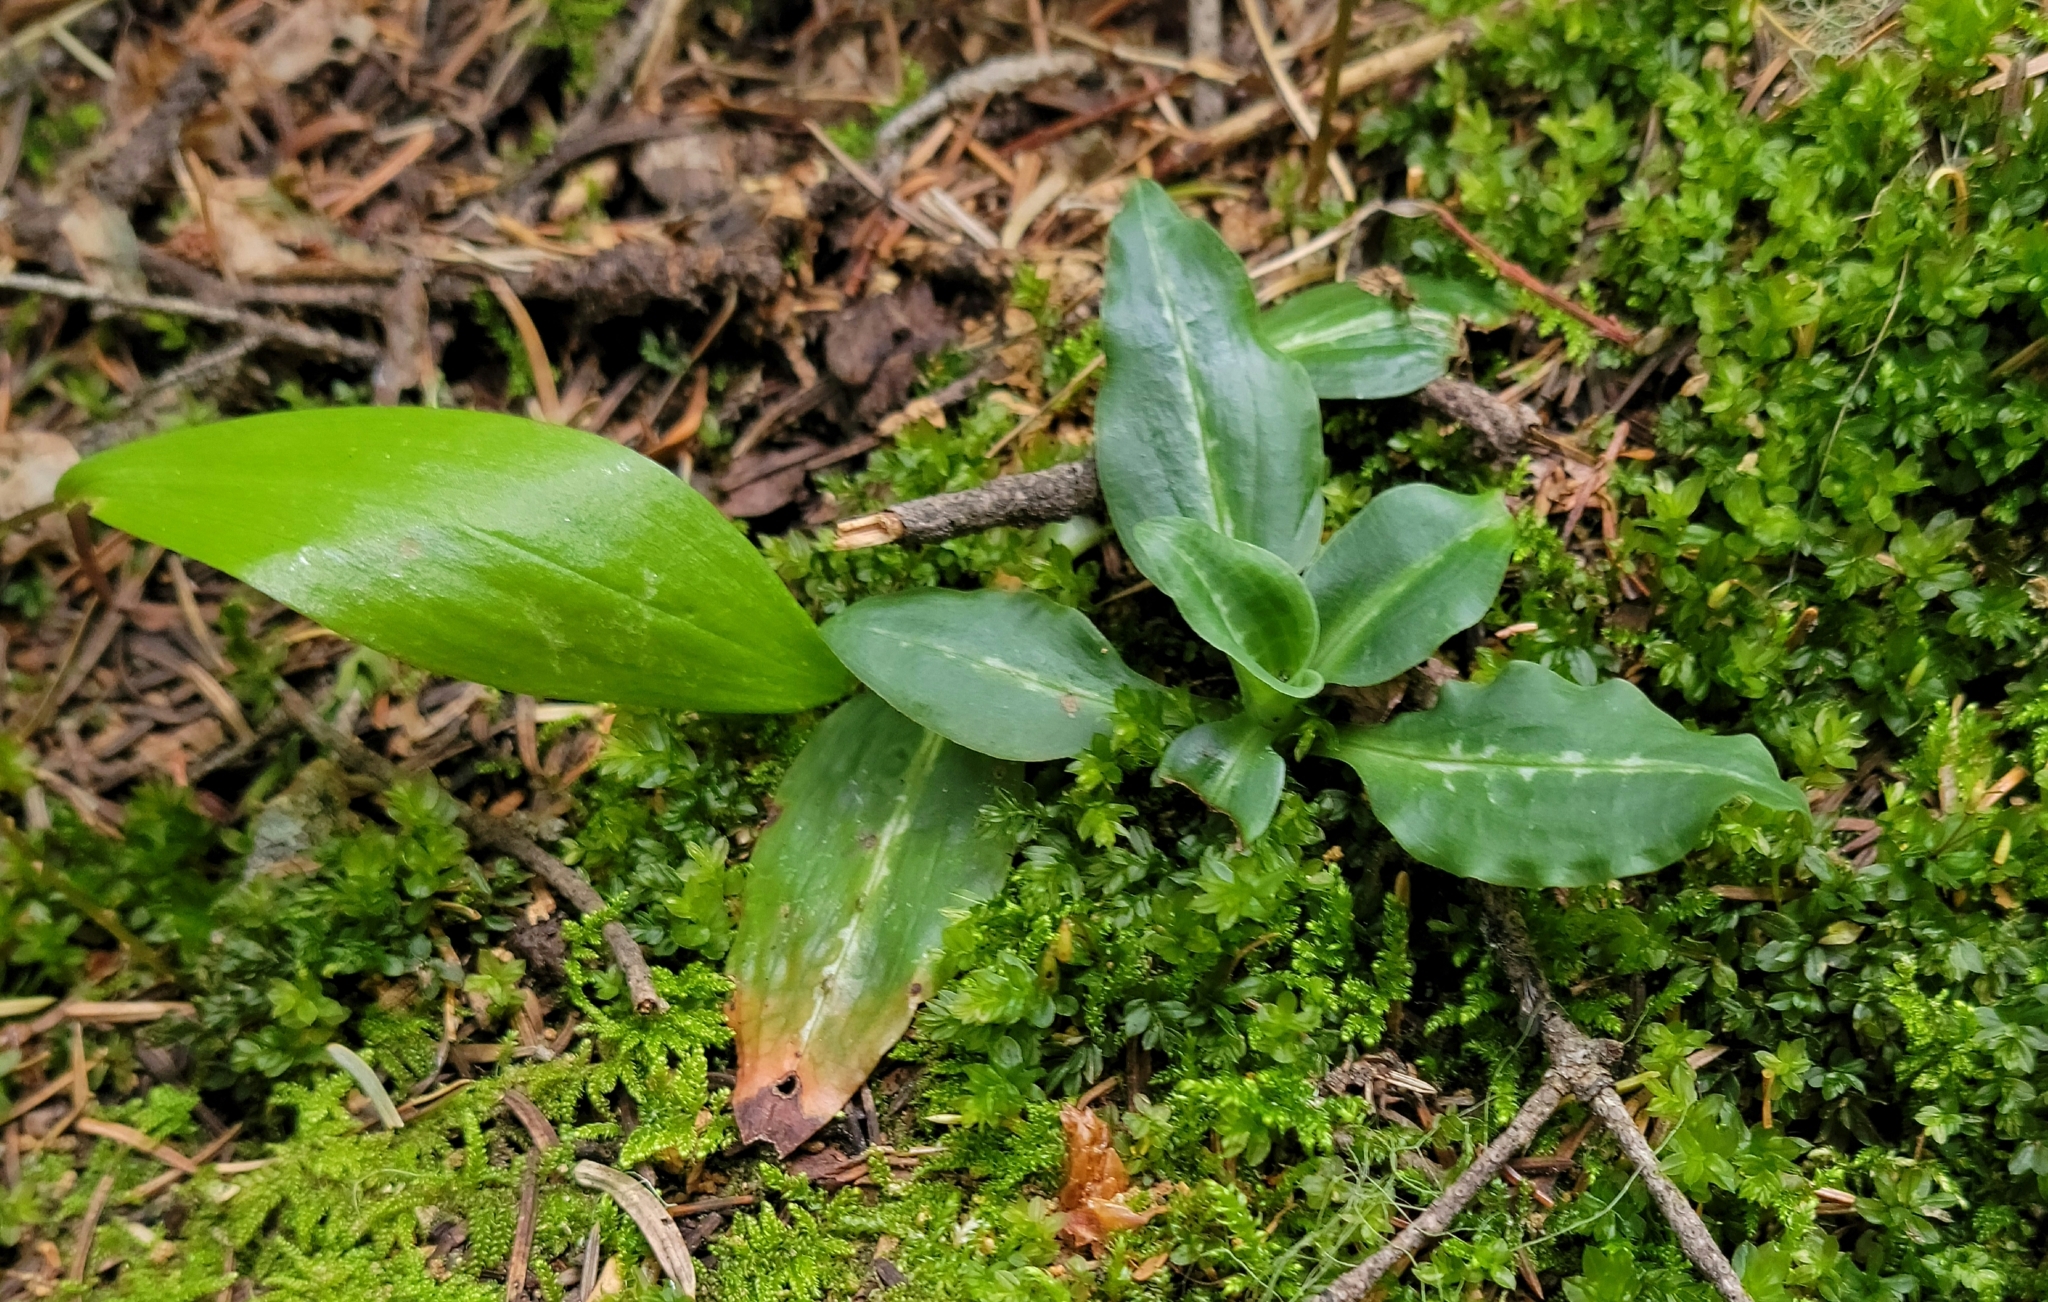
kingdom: Plantae
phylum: Tracheophyta
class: Liliopsida
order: Asparagales
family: Orchidaceae
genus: Goodyera
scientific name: Goodyera oblongifolia
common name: Giant rattlesnake-plantain
